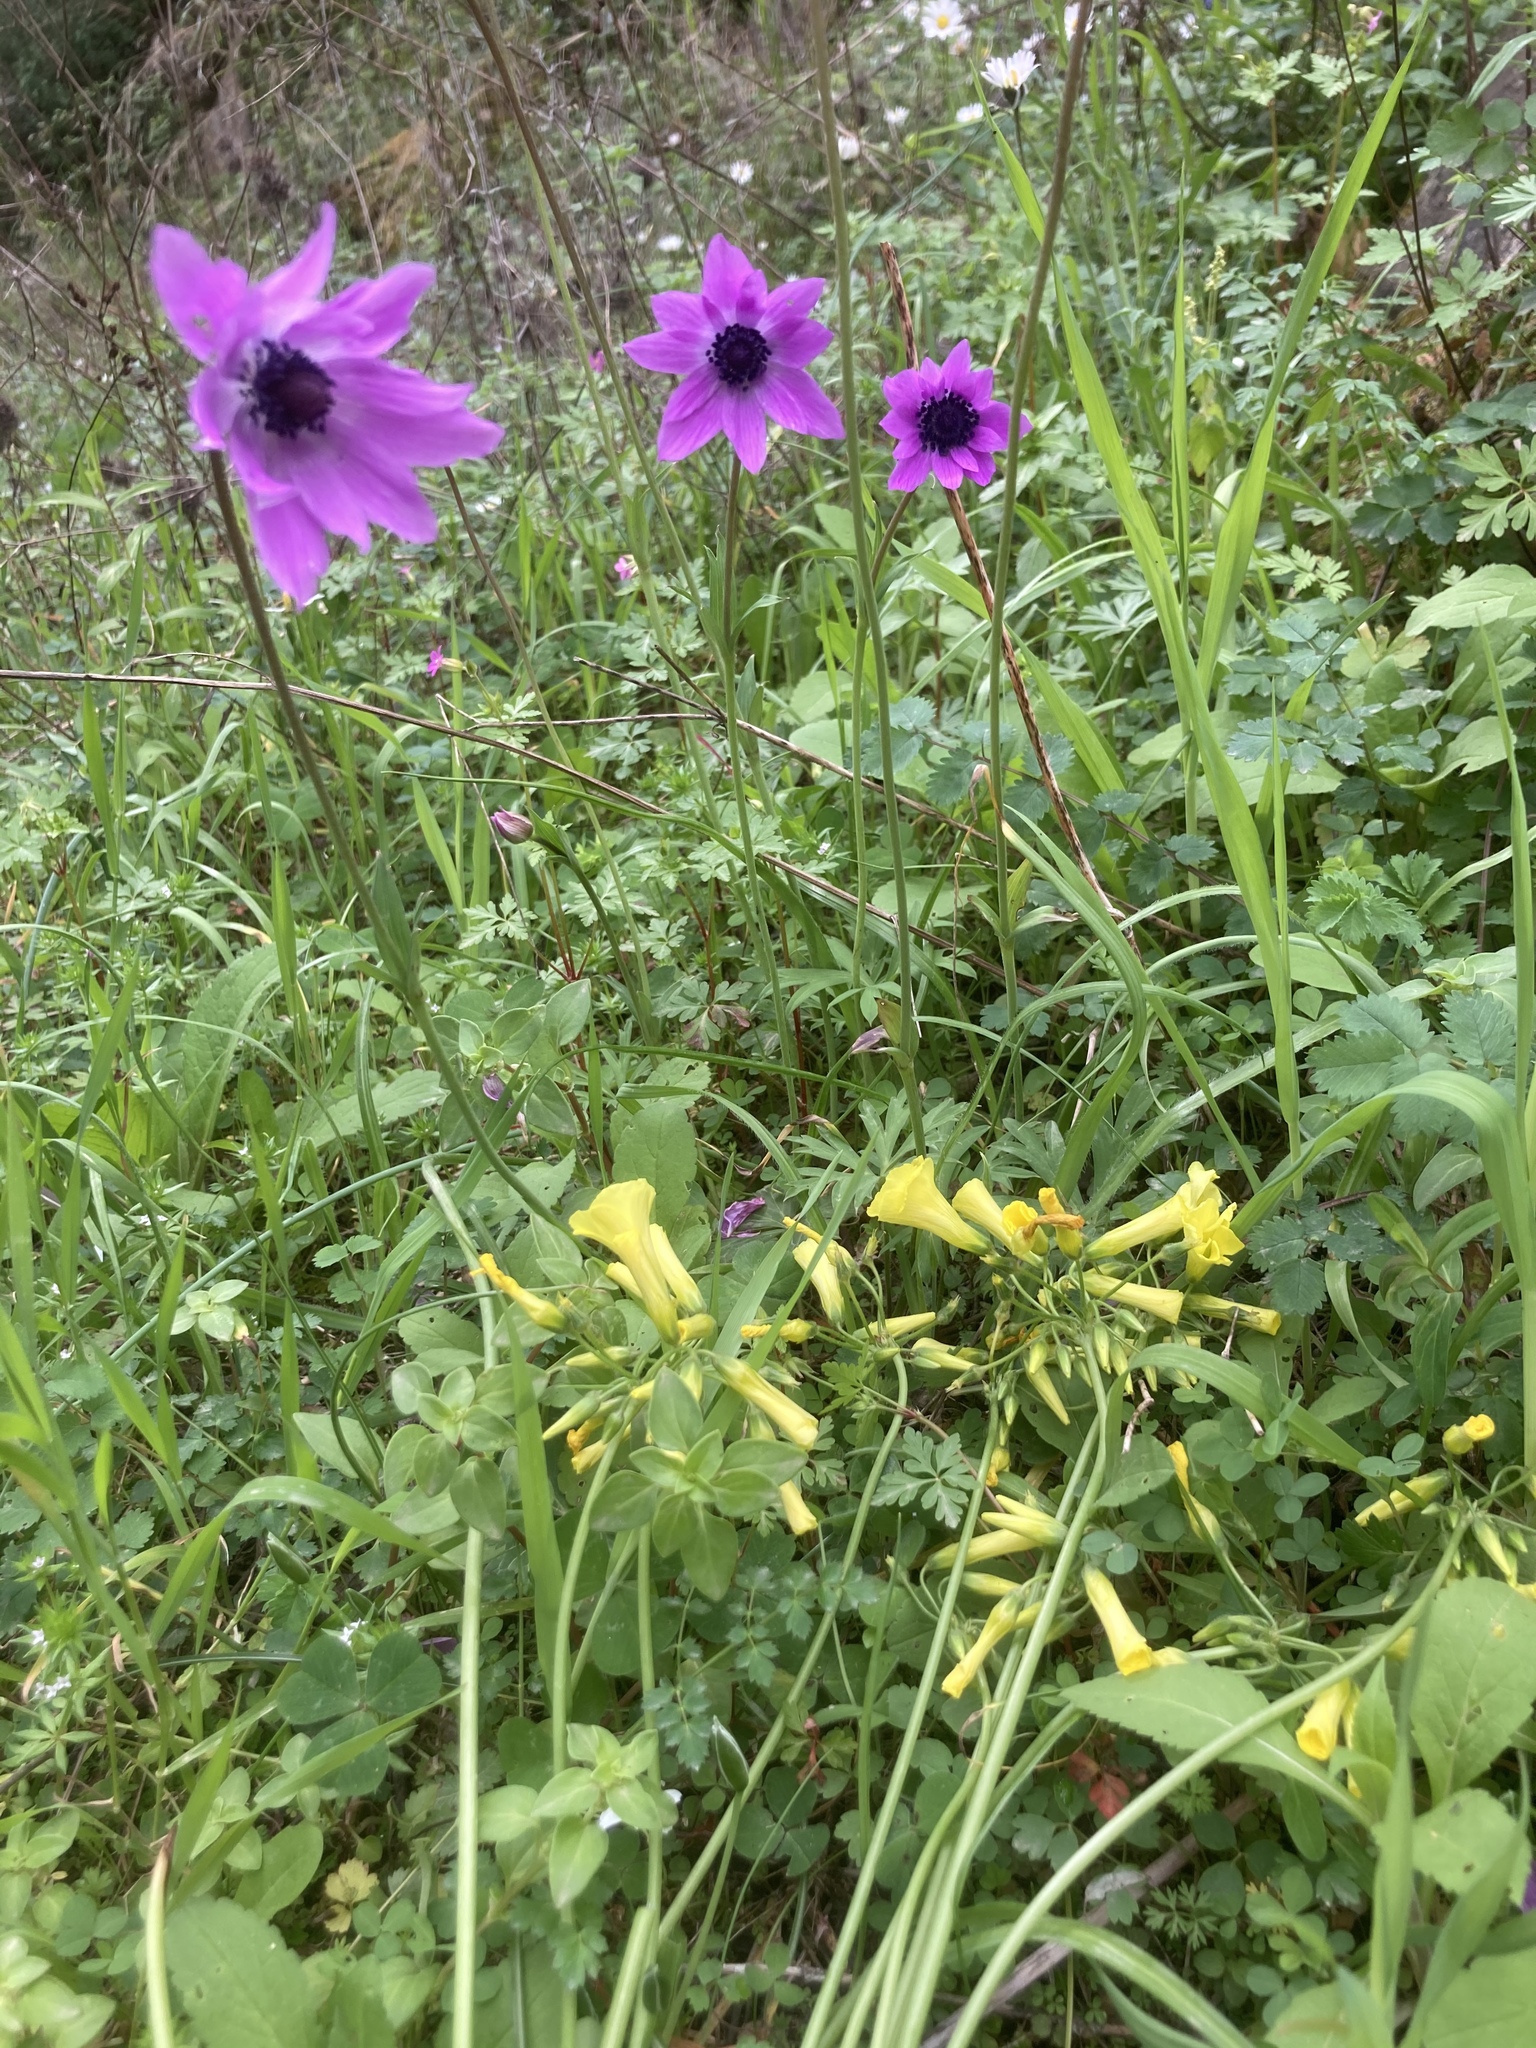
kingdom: Plantae
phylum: Tracheophyta
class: Magnoliopsida
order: Gentianales
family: Rubiaceae
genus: Sherardia
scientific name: Sherardia arvensis
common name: Field madder
